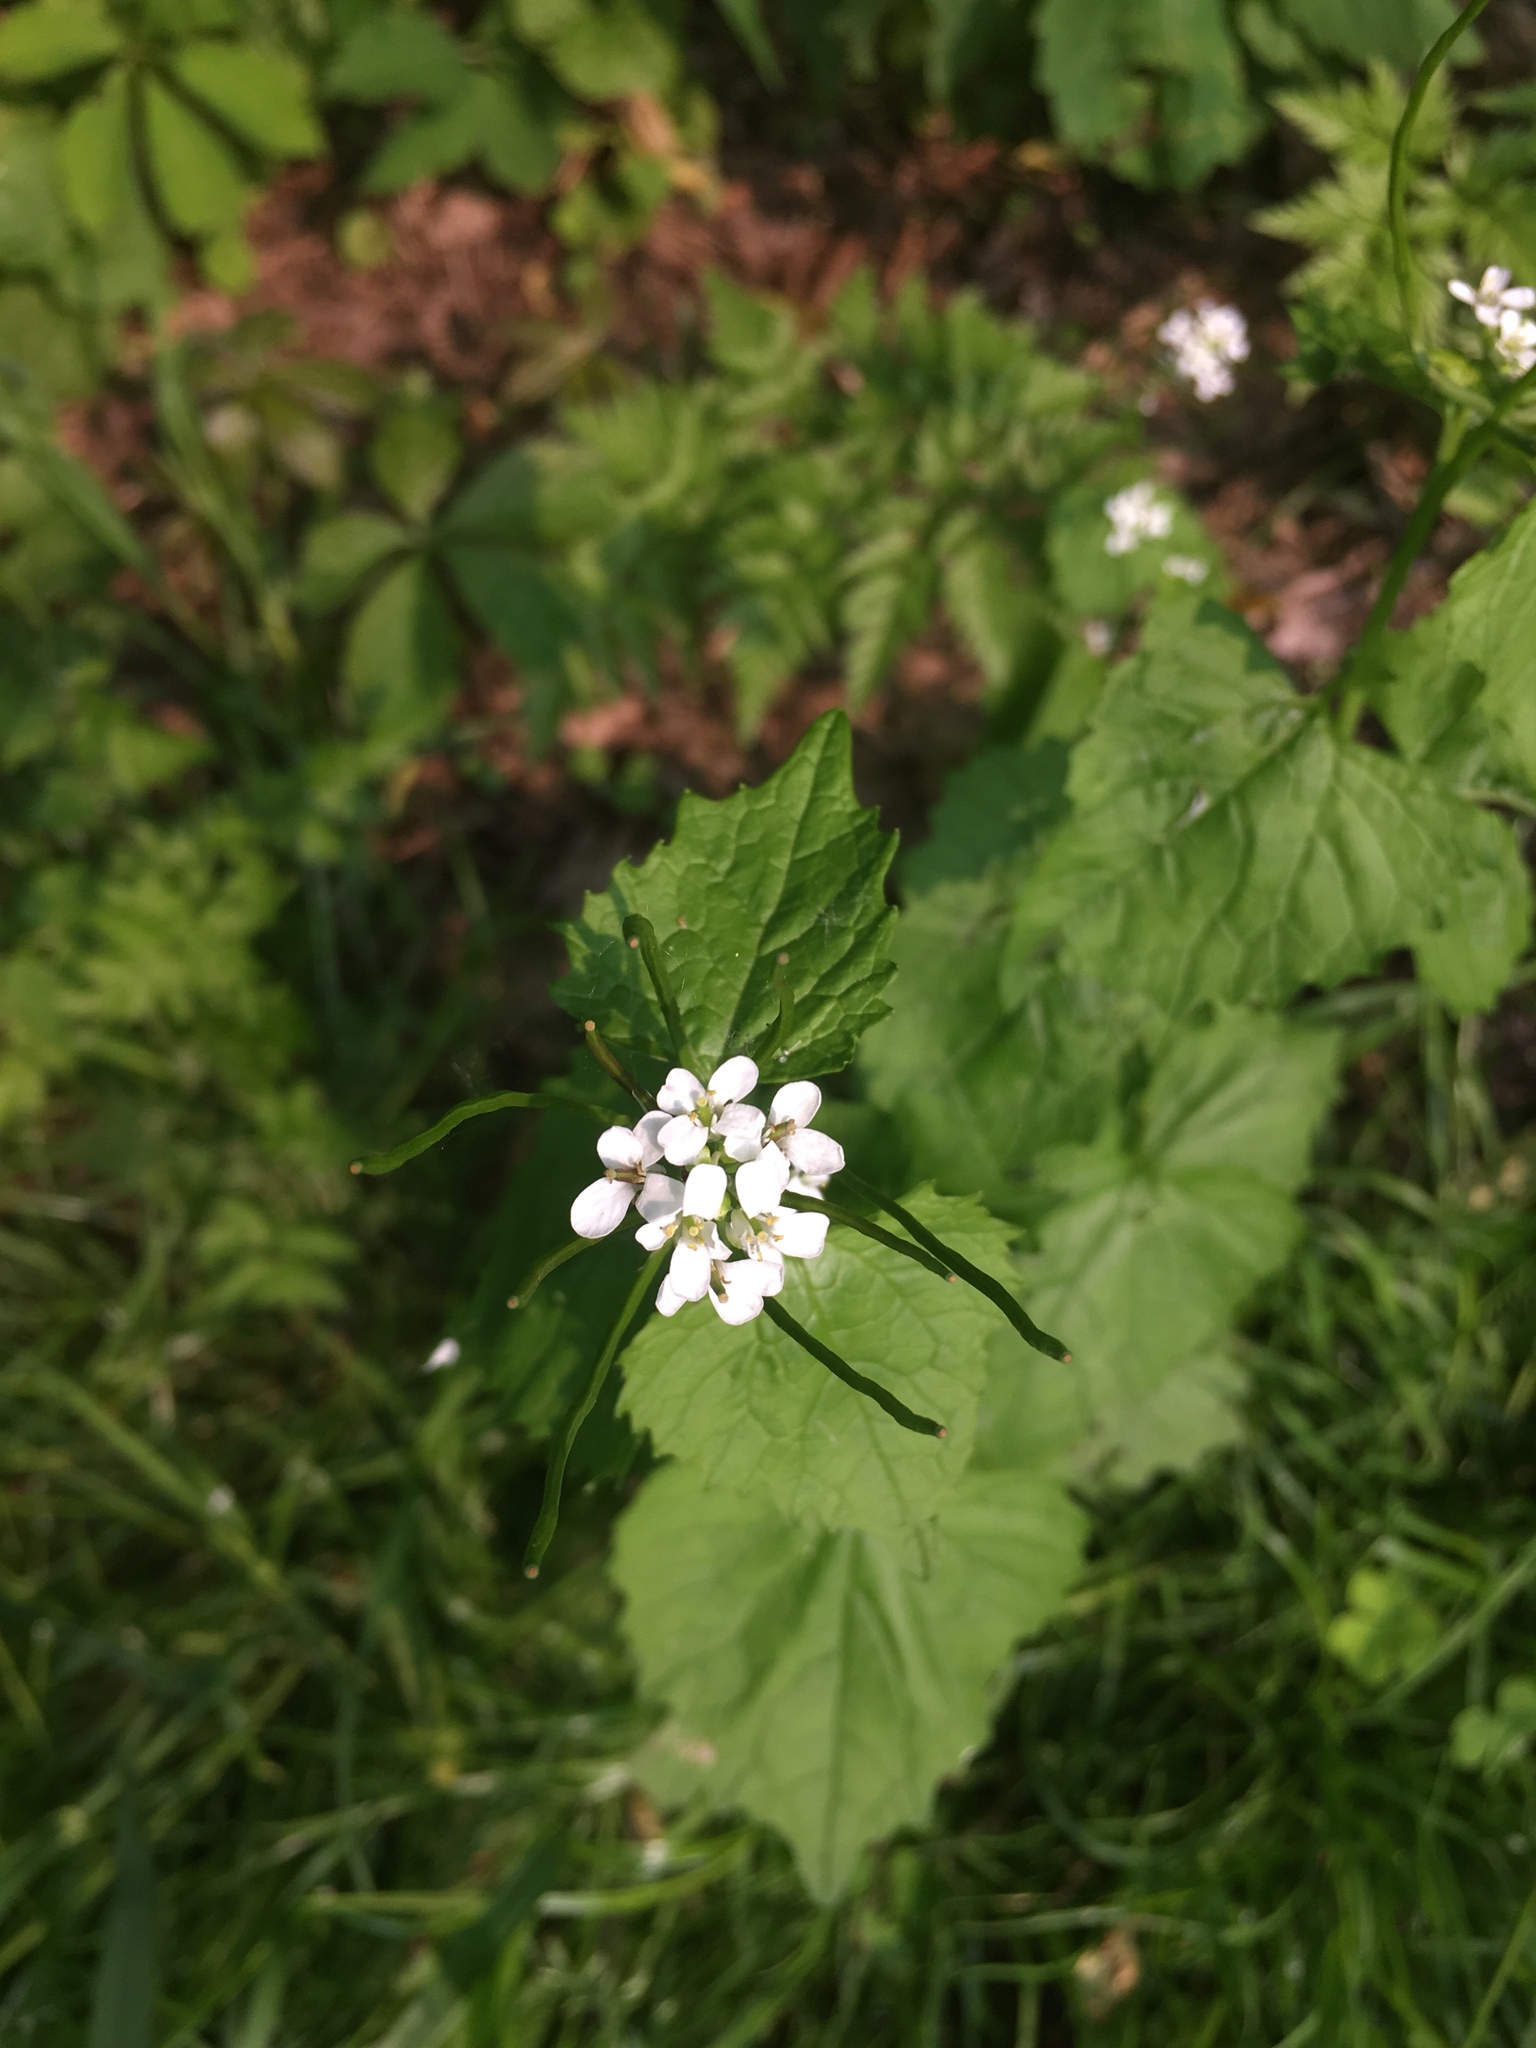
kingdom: Plantae
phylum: Tracheophyta
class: Magnoliopsida
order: Brassicales
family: Brassicaceae
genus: Alliaria
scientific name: Alliaria petiolata
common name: Garlic mustard
